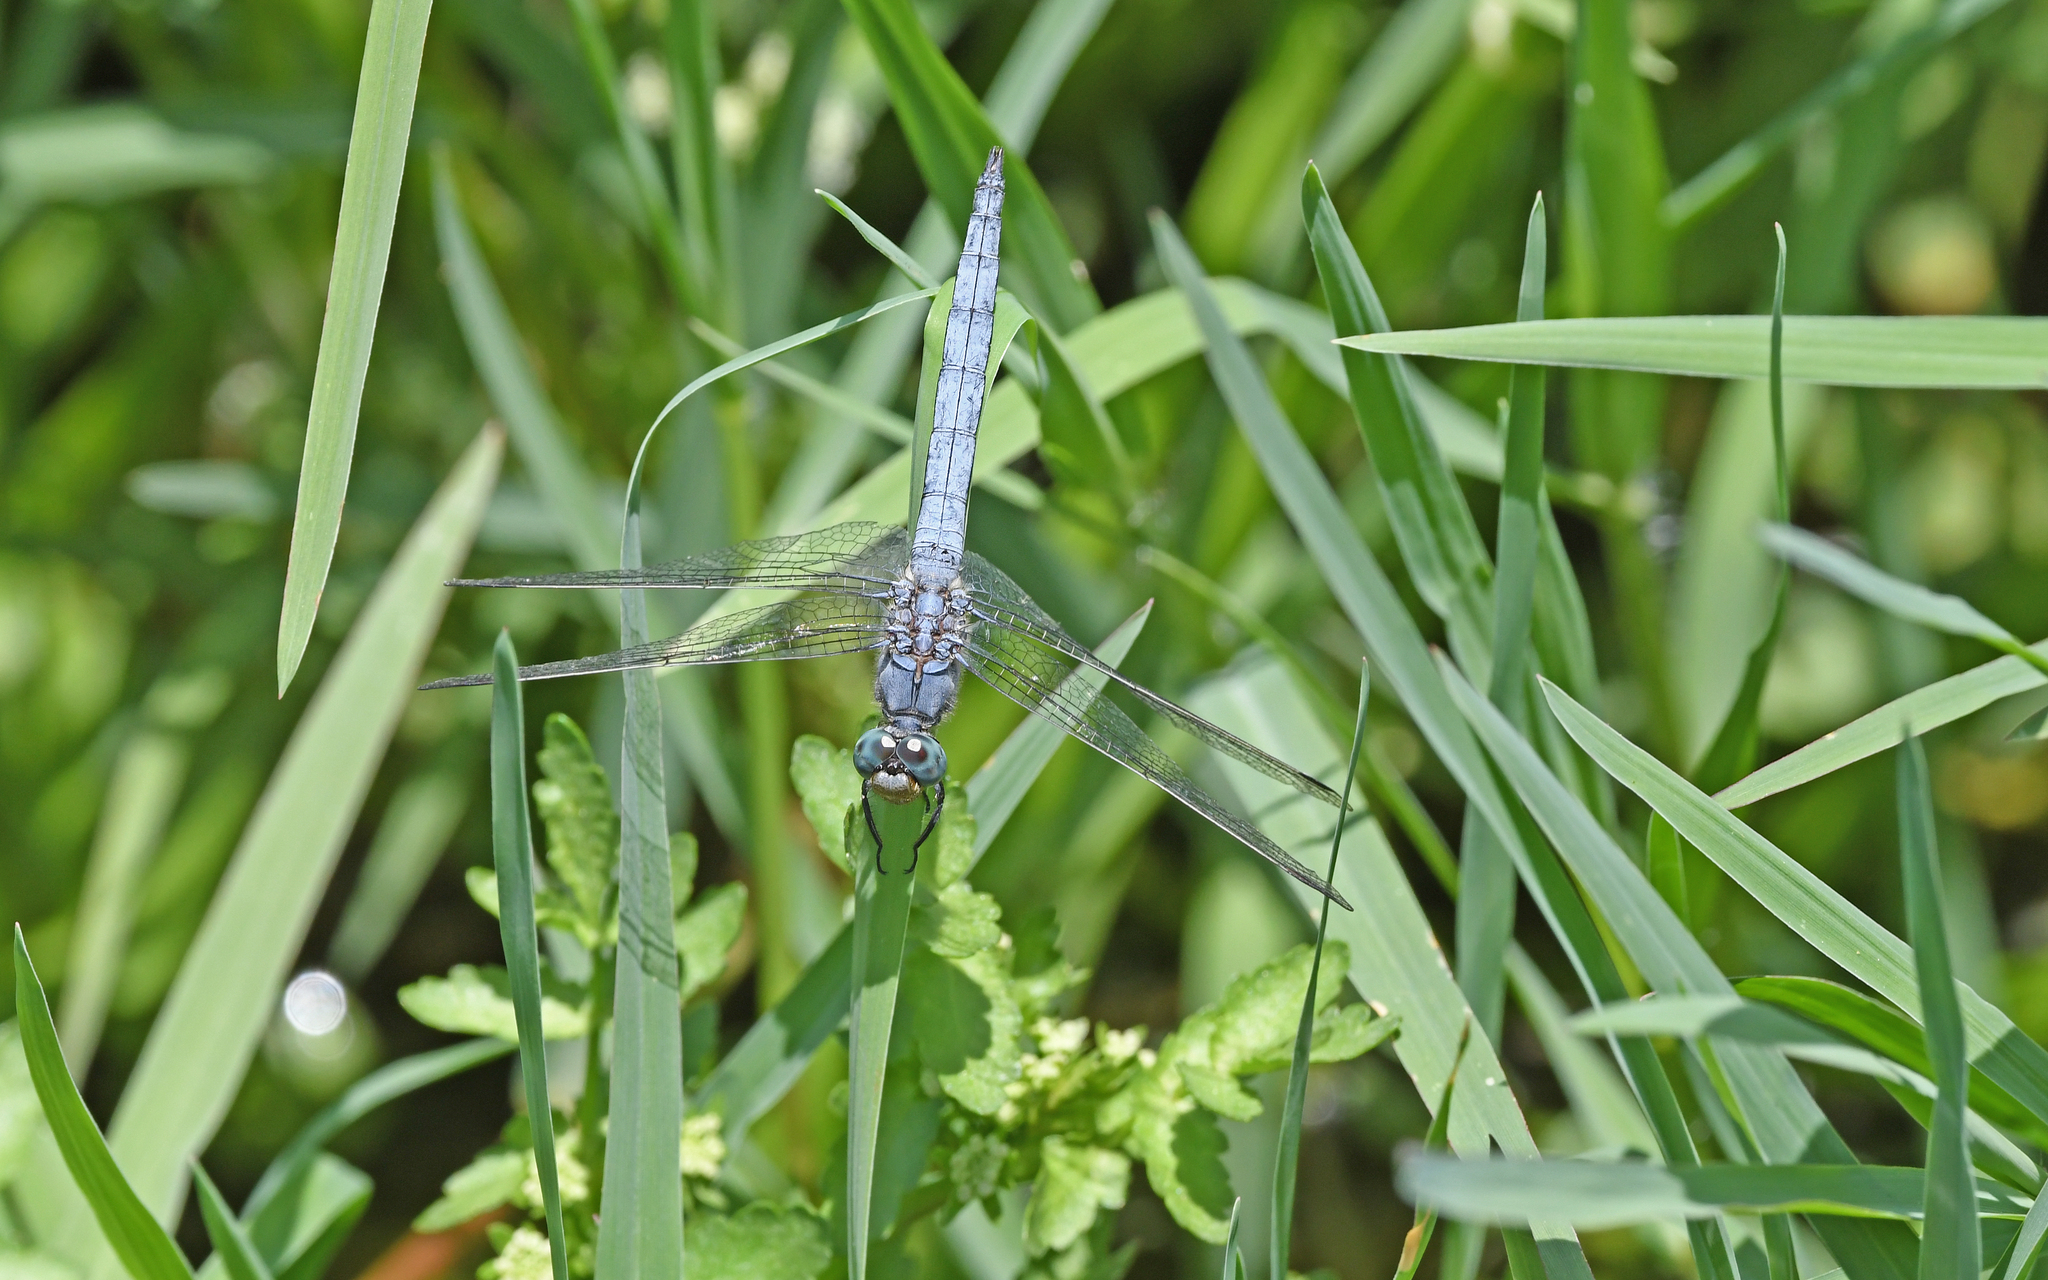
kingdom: Animalia
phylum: Arthropoda
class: Insecta
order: Odonata
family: Libellulidae
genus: Orthetrum
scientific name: Orthetrum coerulescens
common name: Keeled skimmer
